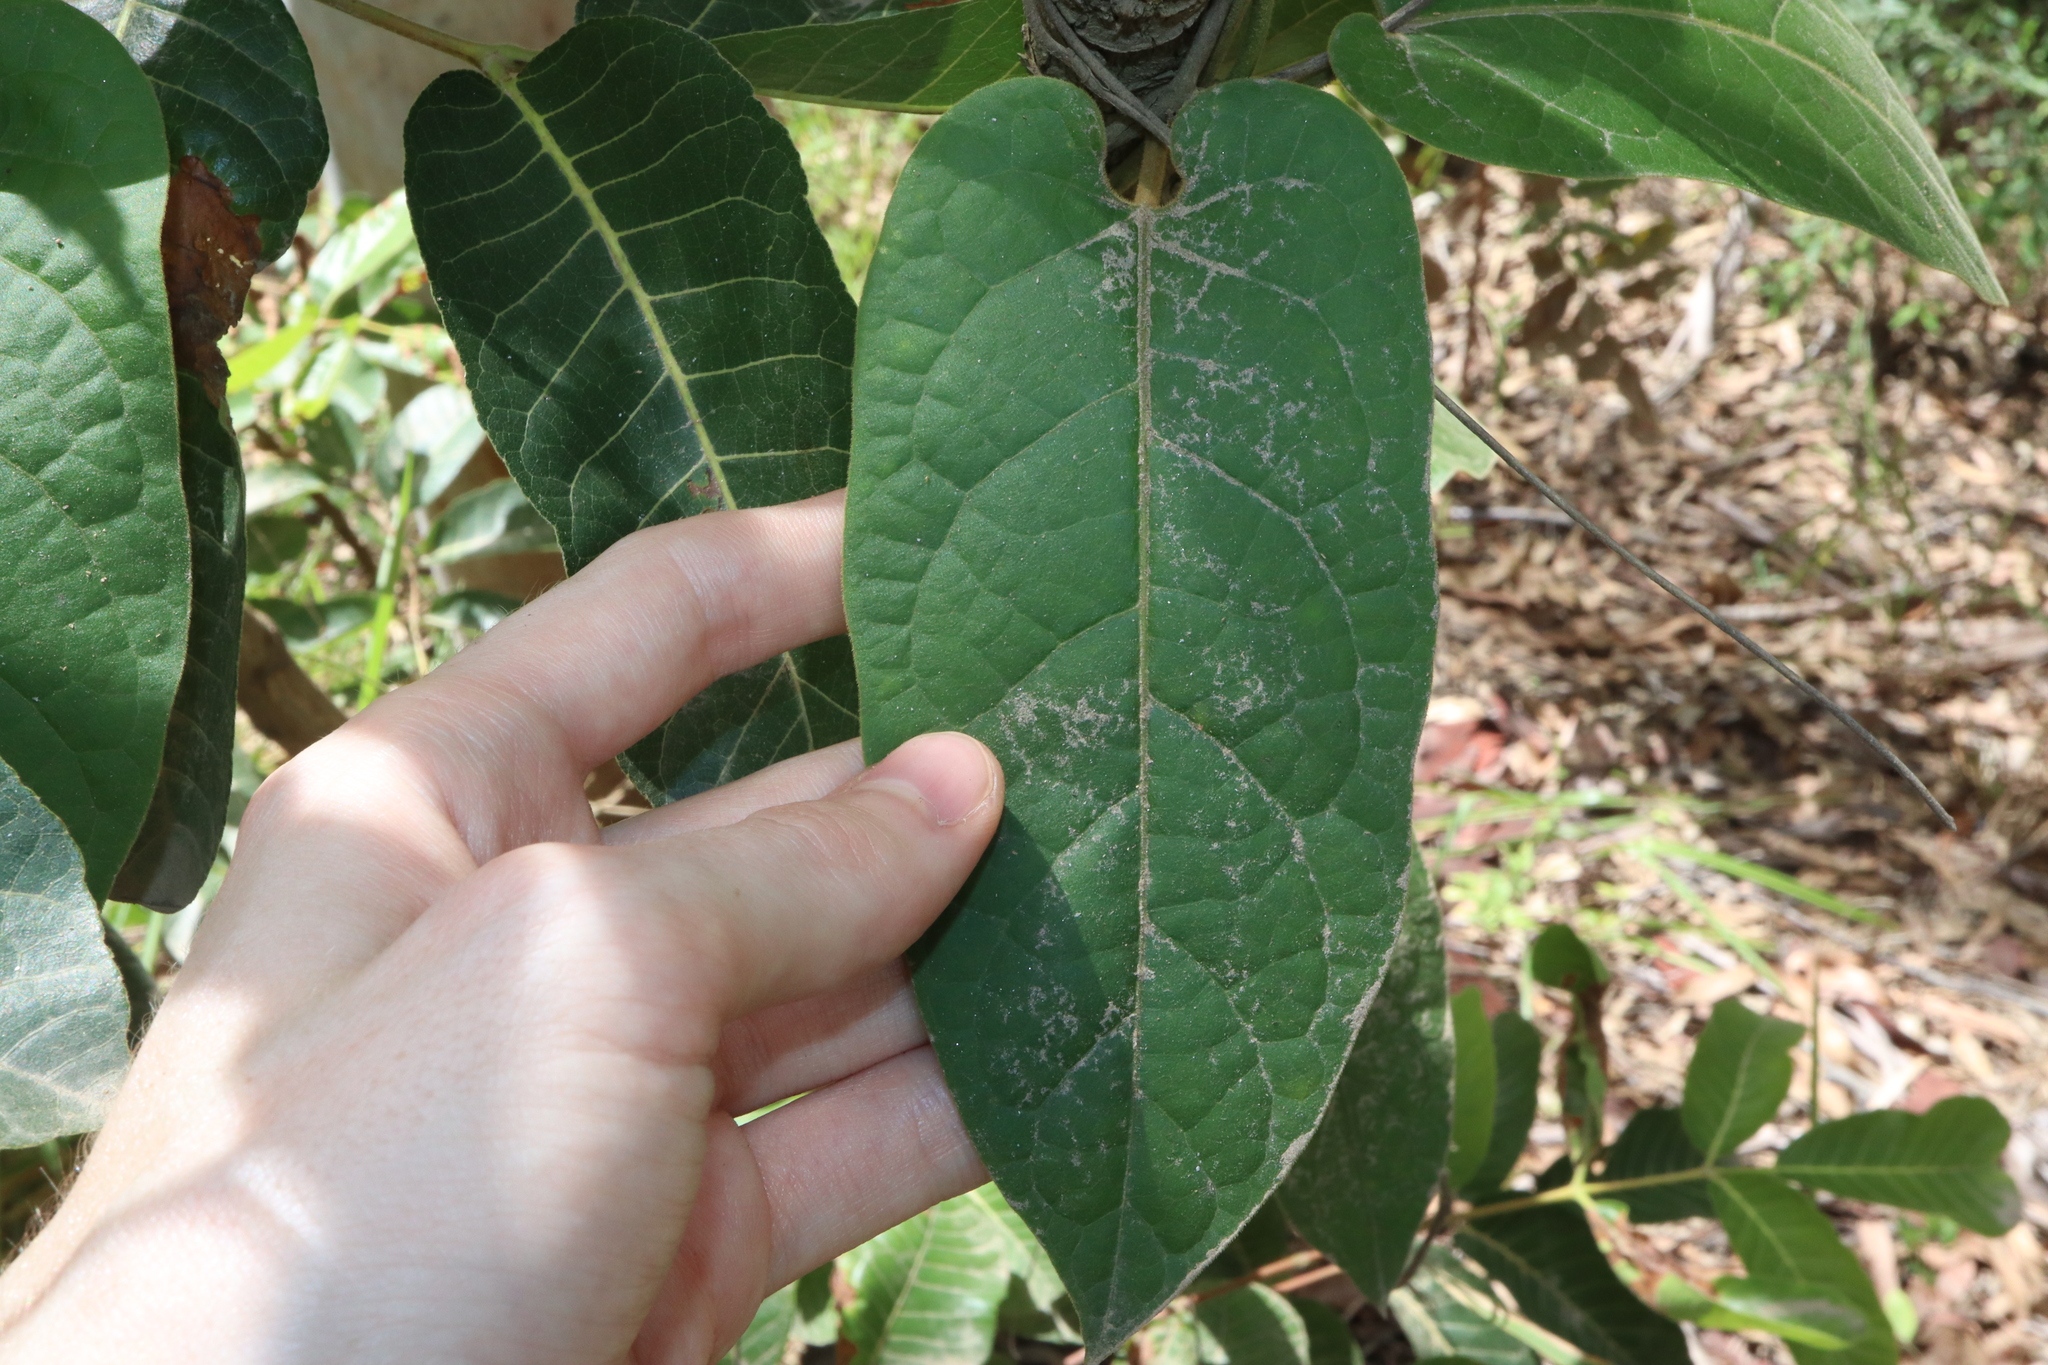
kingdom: Plantae
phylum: Tracheophyta
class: Magnoliopsida
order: Gentianales
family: Apocynaceae
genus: Parsonsia
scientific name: Parsonsia velutina
